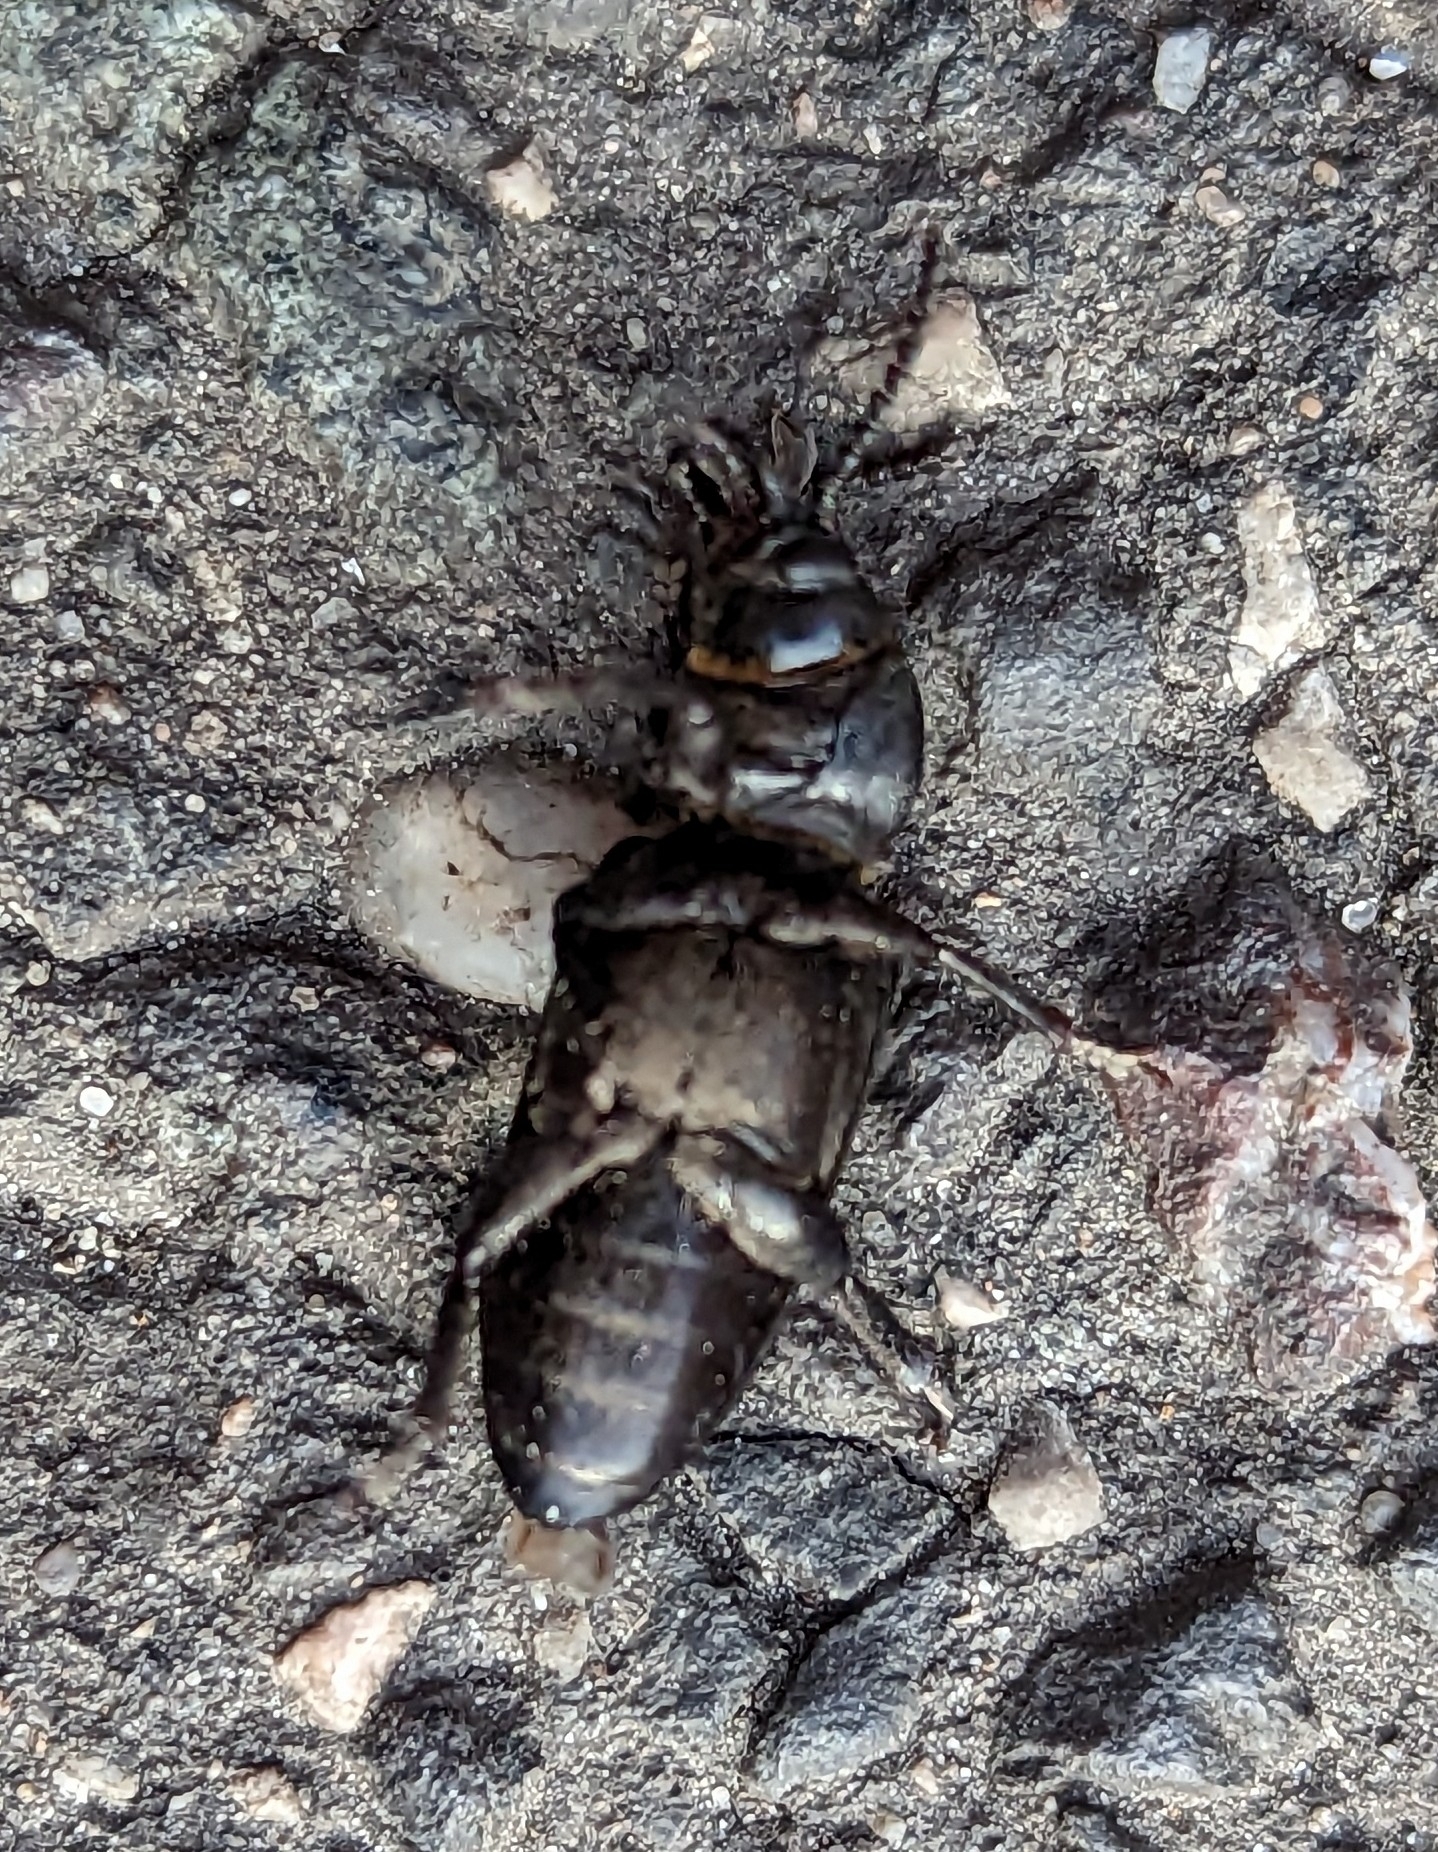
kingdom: Animalia
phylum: Arthropoda
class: Insecta
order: Coleoptera
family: Cerambycidae
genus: Spondylis
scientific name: Spondylis buprestoides
